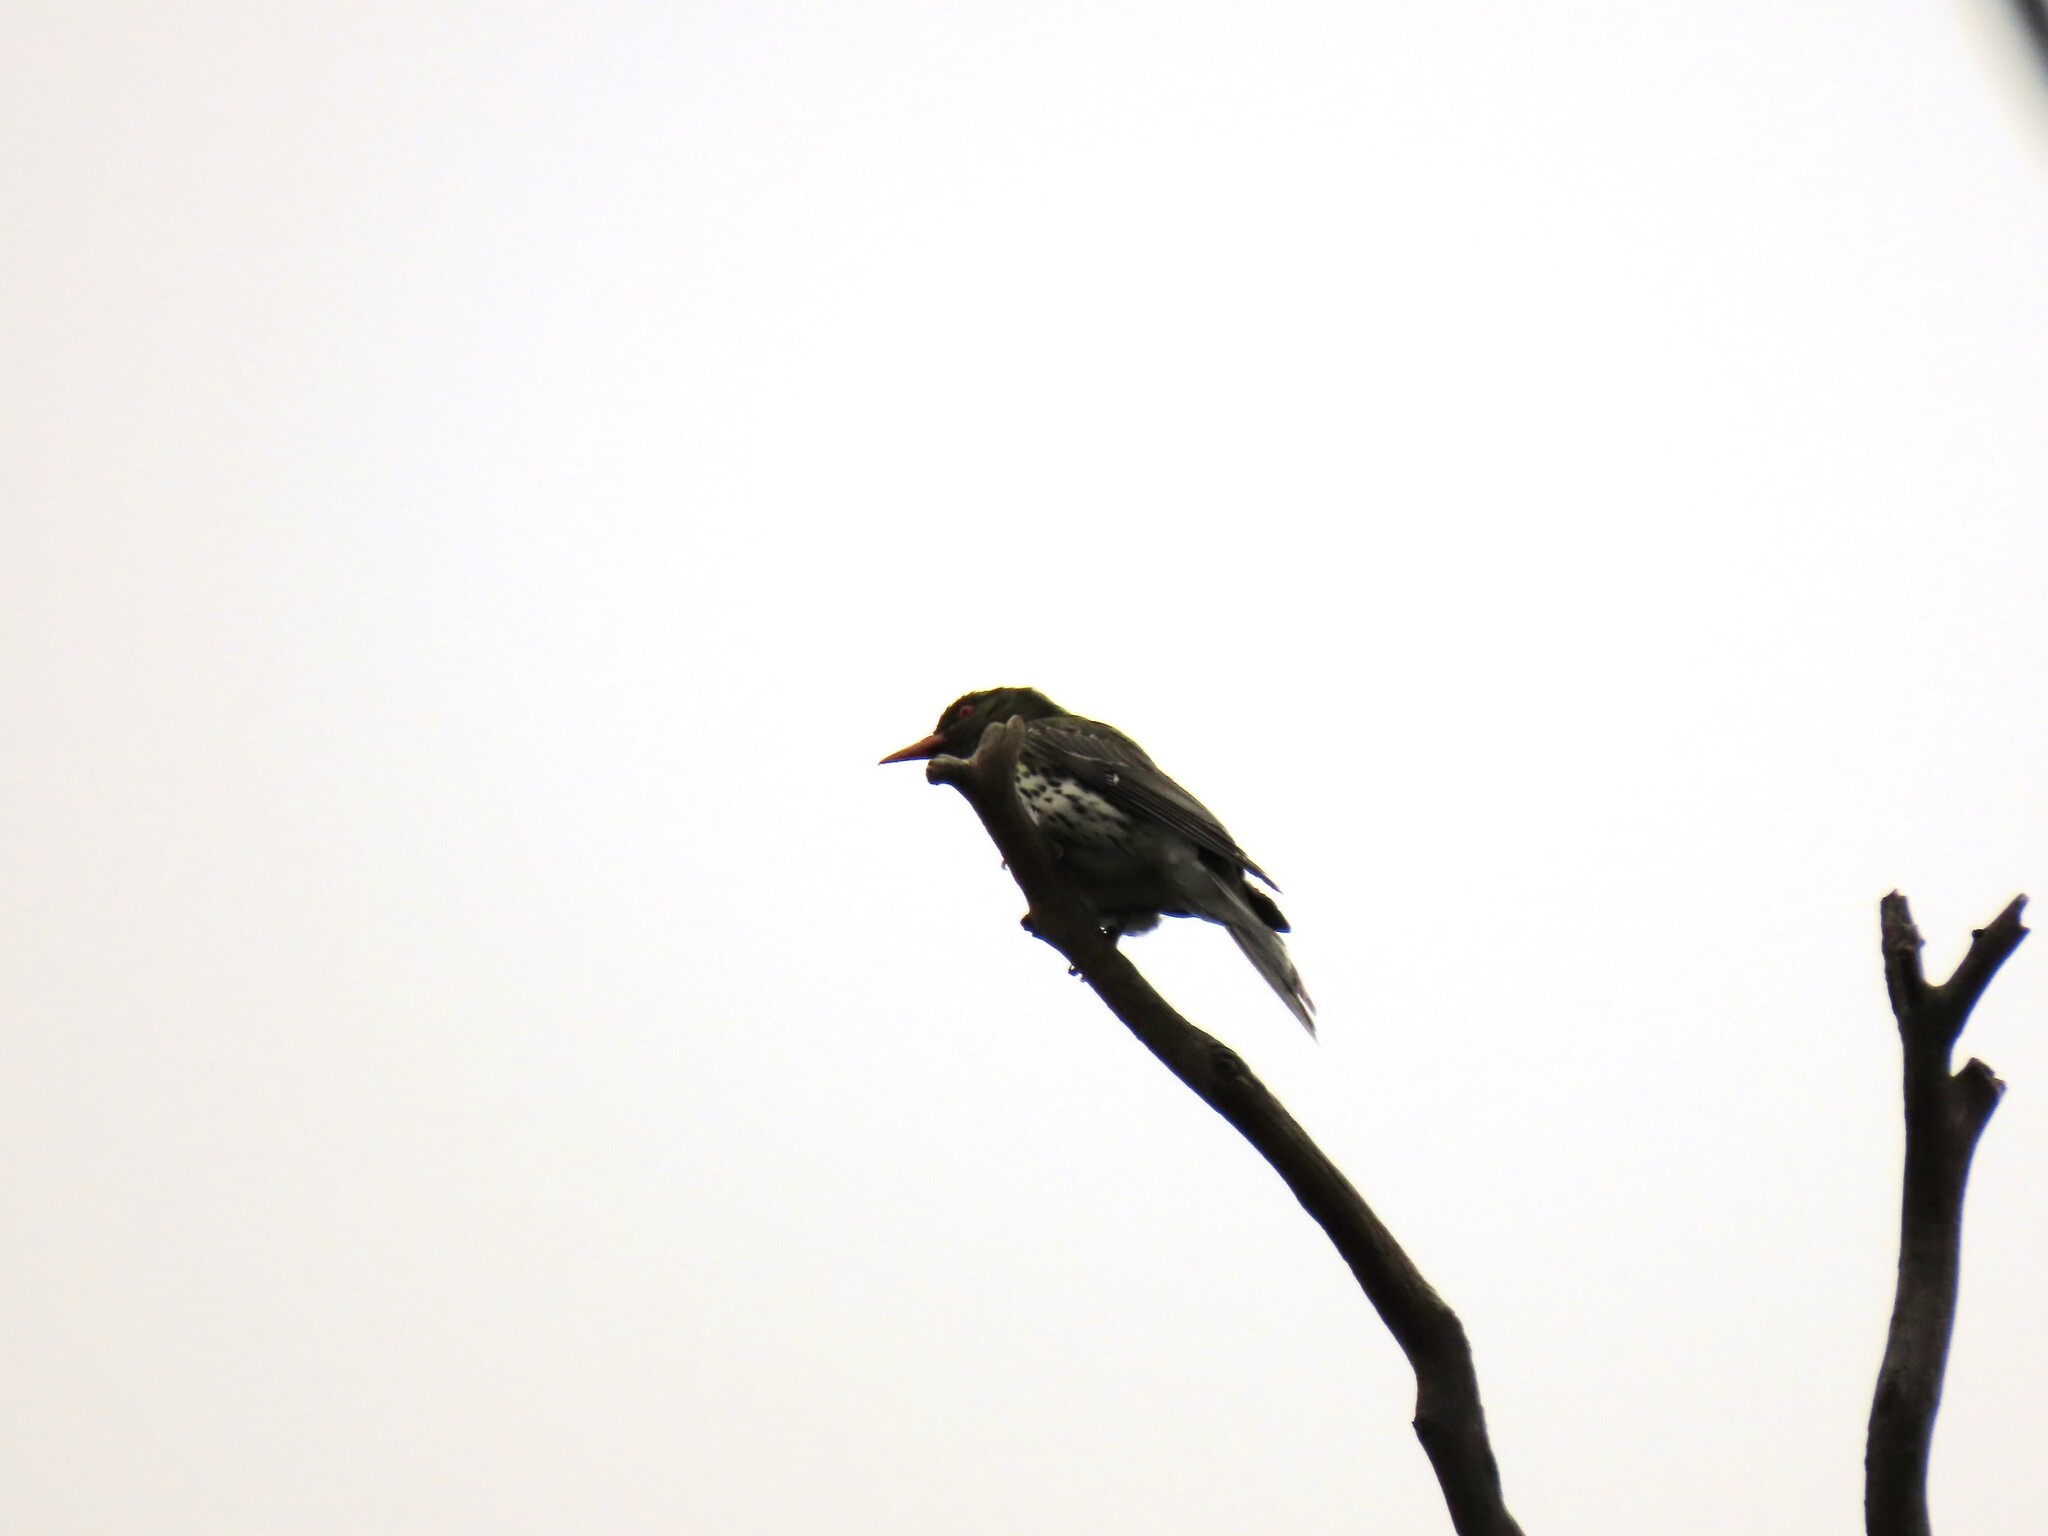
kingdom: Animalia
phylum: Chordata
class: Aves
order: Passeriformes
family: Oriolidae
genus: Oriolus
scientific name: Oriolus sagittatus
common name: Olive-backed oriole
